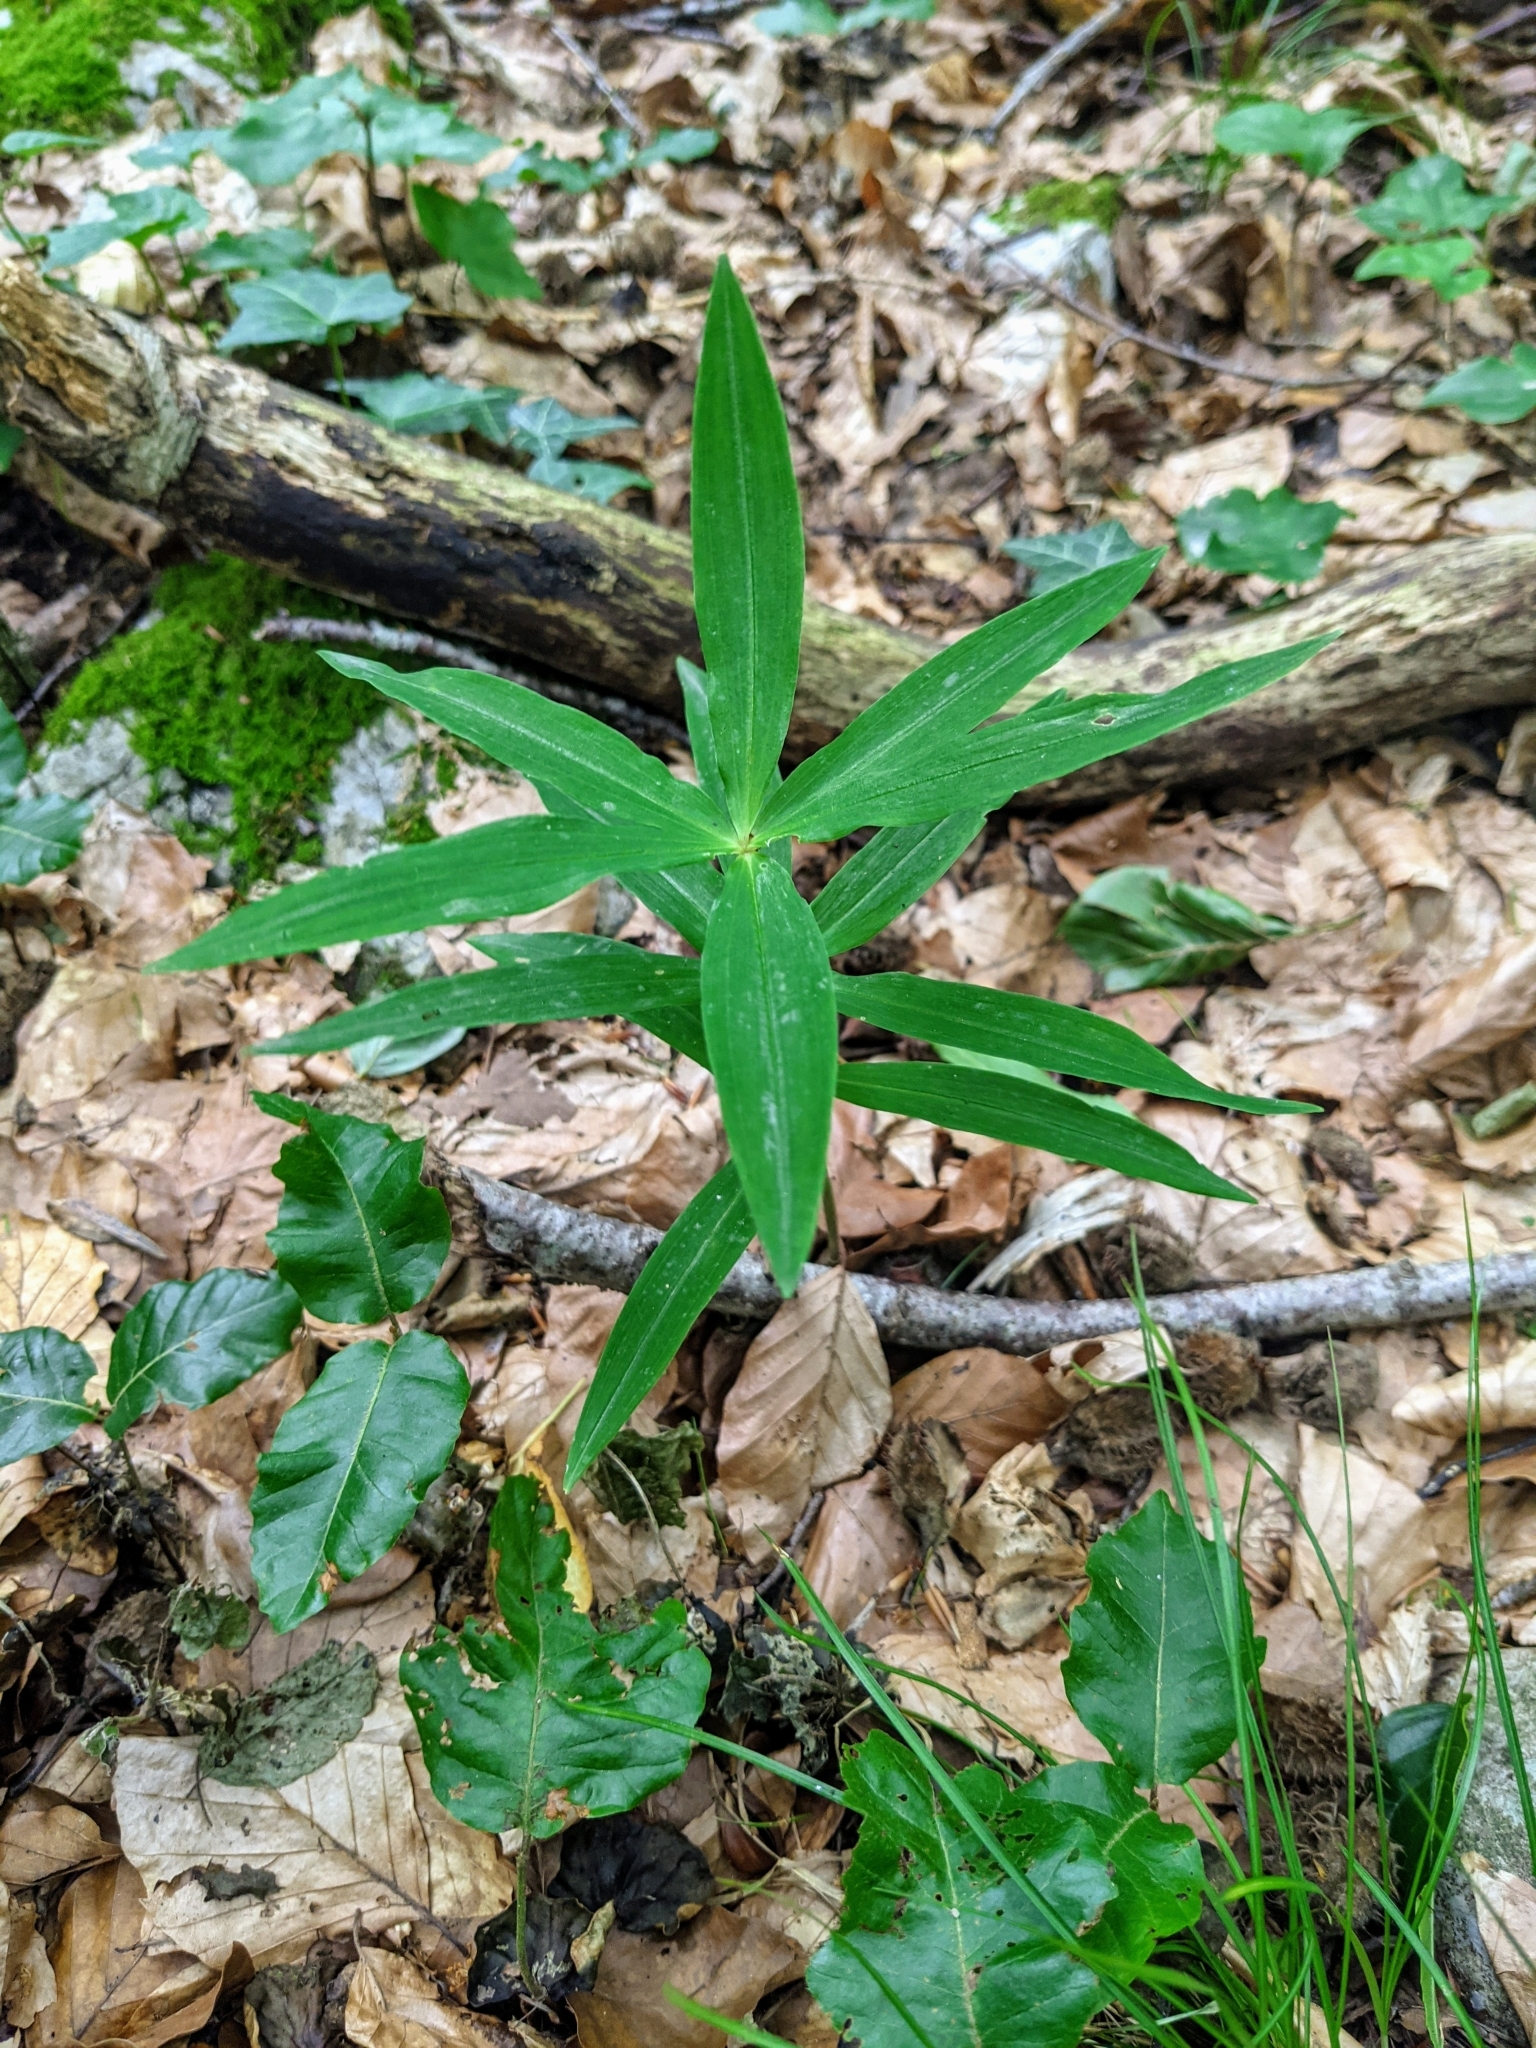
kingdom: Plantae
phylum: Tracheophyta
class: Liliopsida
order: Asparagales
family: Asparagaceae
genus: Polygonatum
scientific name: Polygonatum verticillatum
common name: Whorled solomon's-seal
